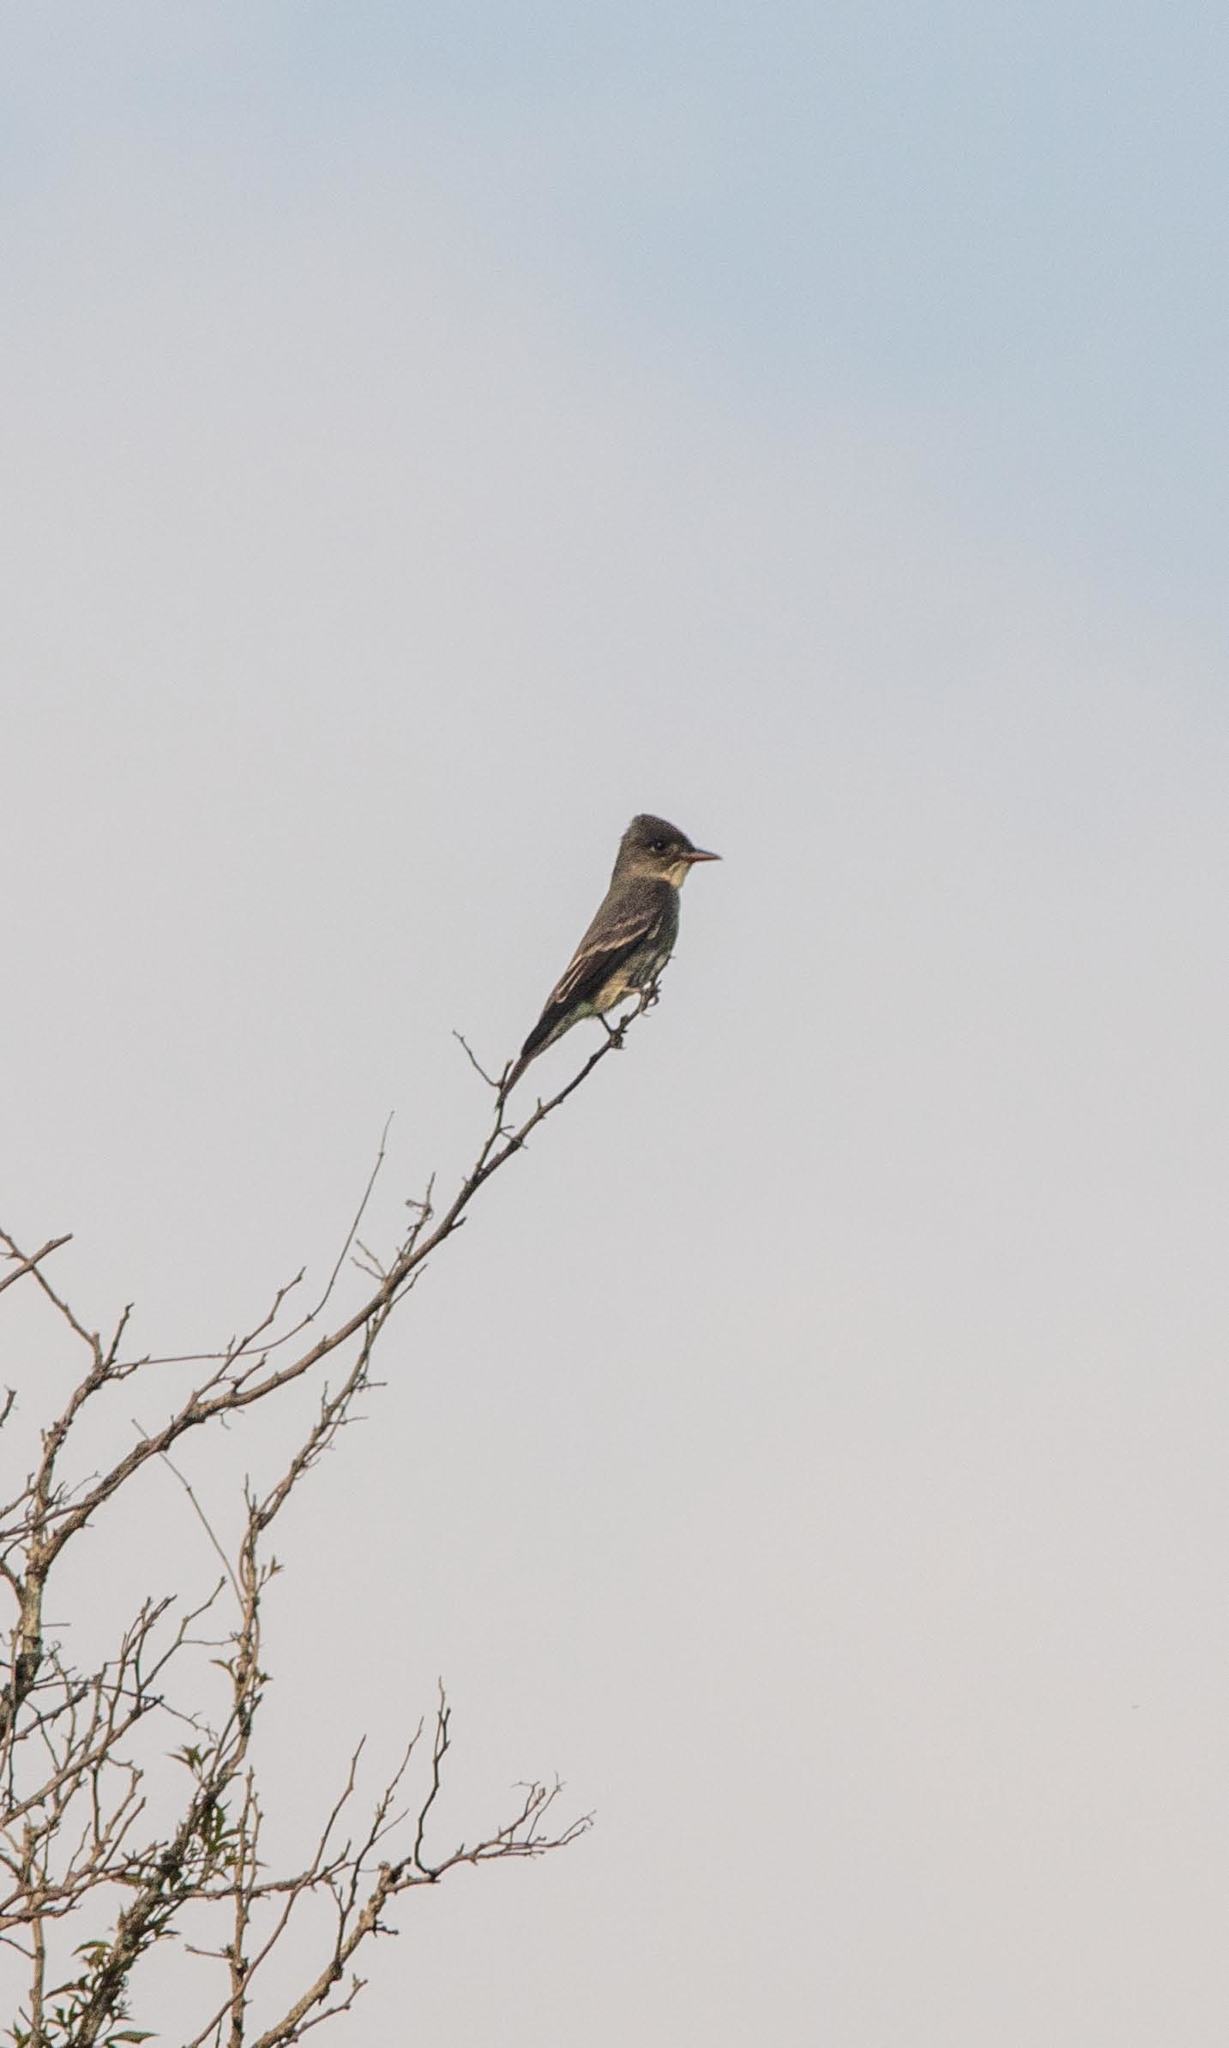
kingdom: Animalia
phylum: Chordata
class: Aves
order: Passeriformes
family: Tyrannidae
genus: Contopus
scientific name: Contopus cooperi
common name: Olive-sided flycatcher
